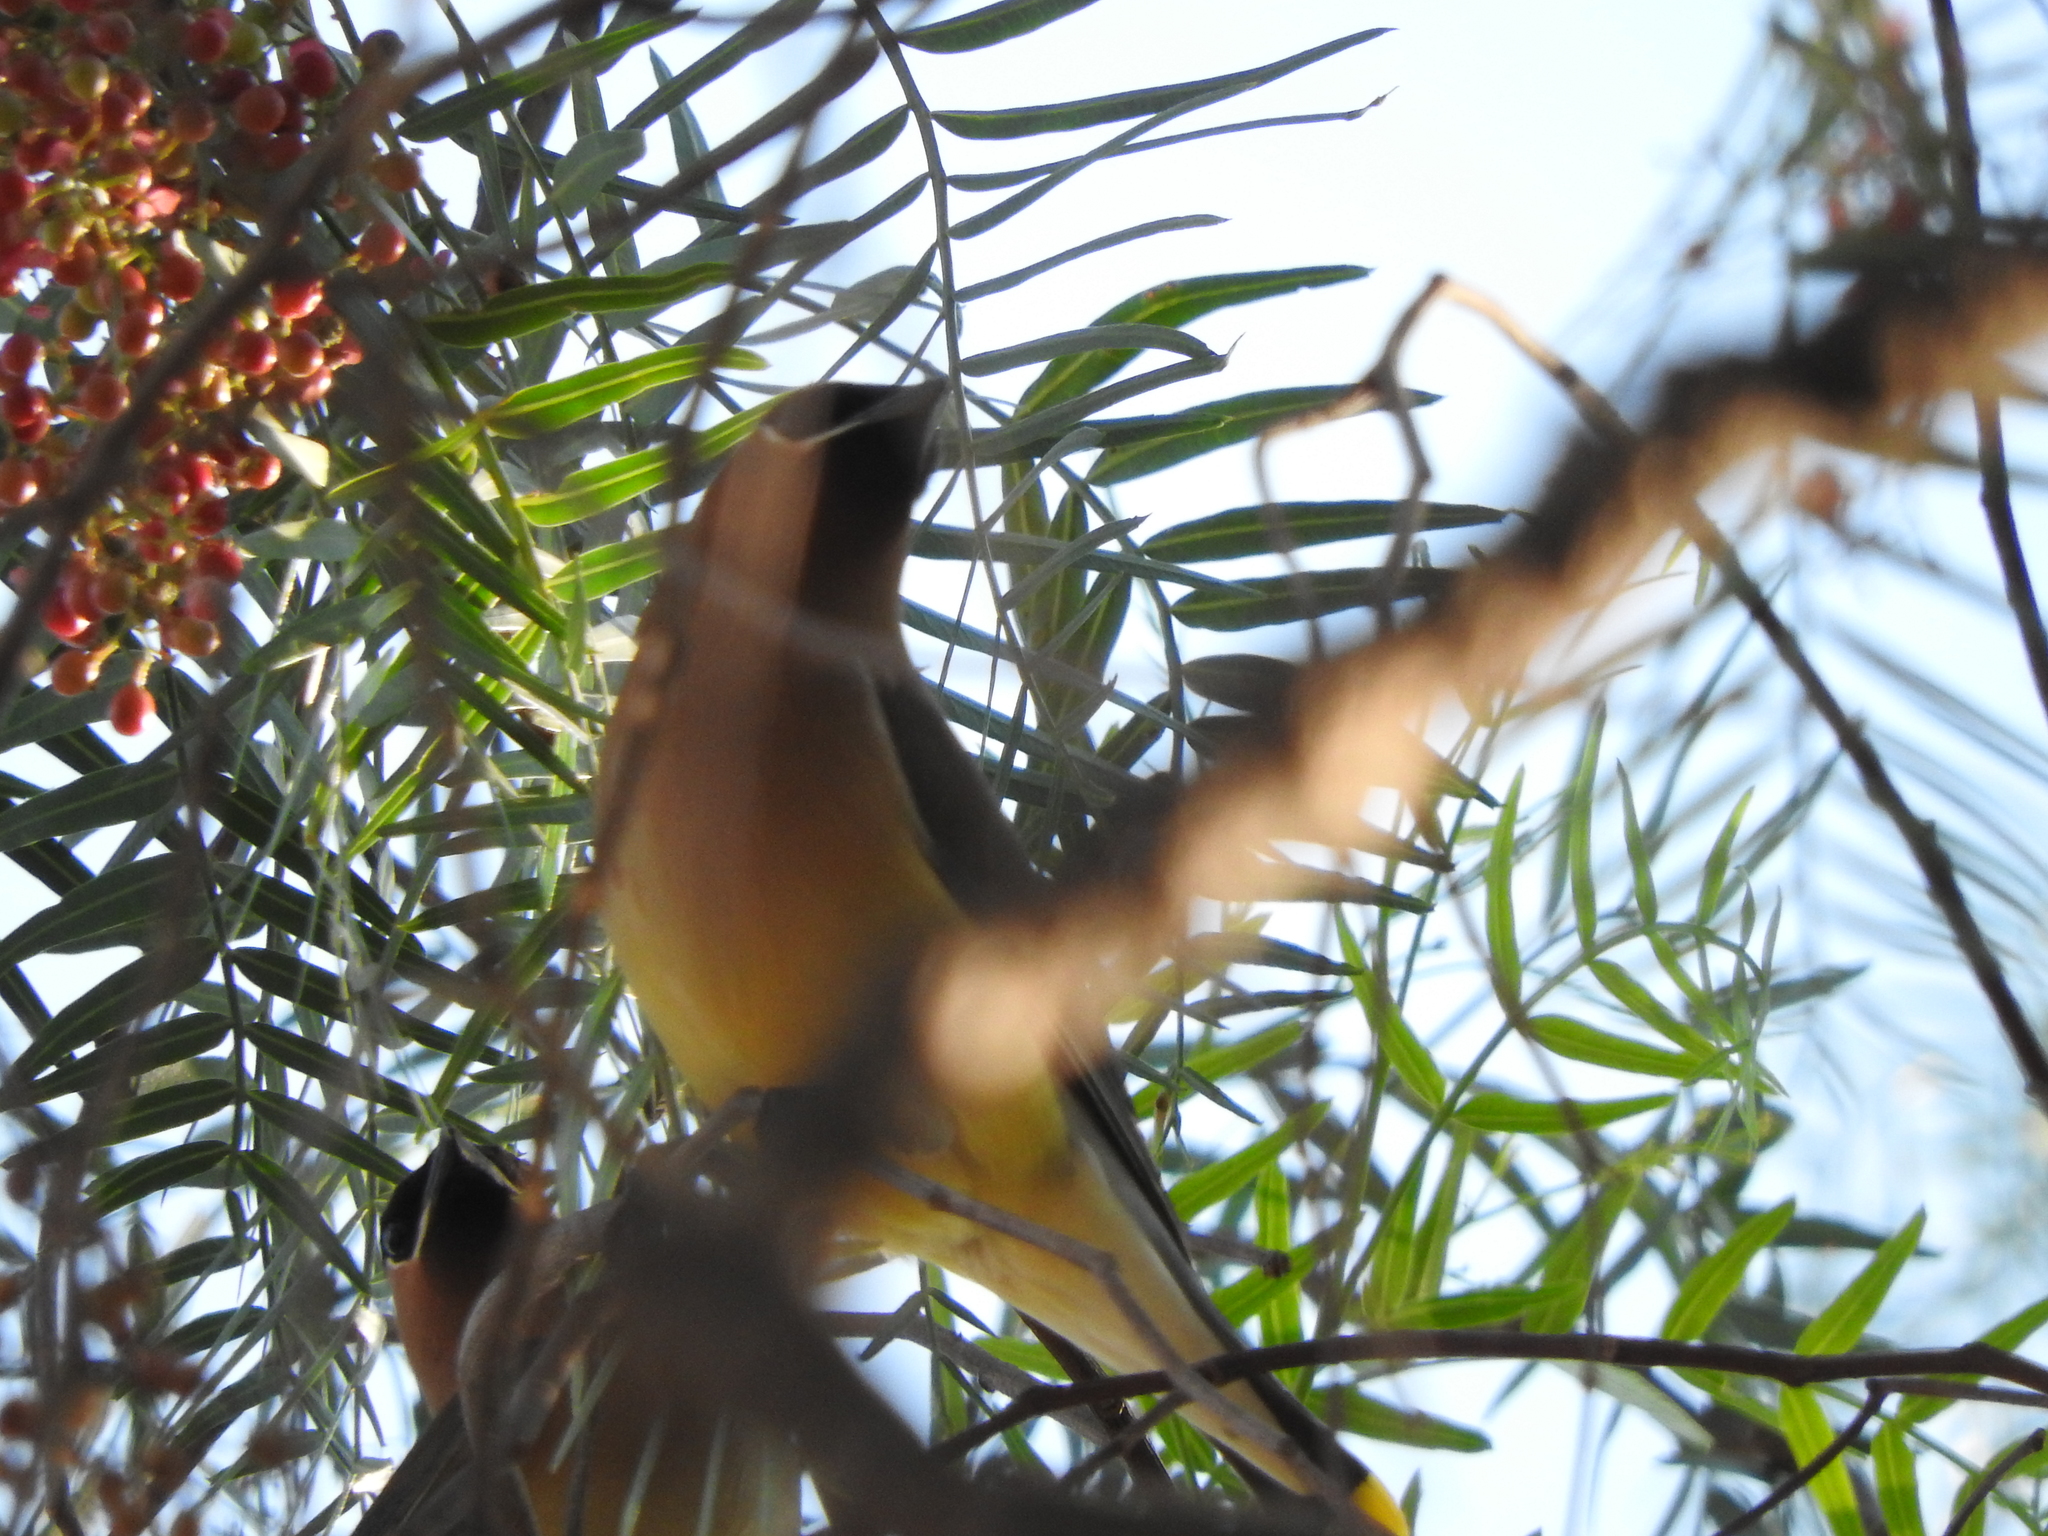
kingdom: Animalia
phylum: Chordata
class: Aves
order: Passeriformes
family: Bombycillidae
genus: Bombycilla
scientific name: Bombycilla cedrorum
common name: Cedar waxwing
